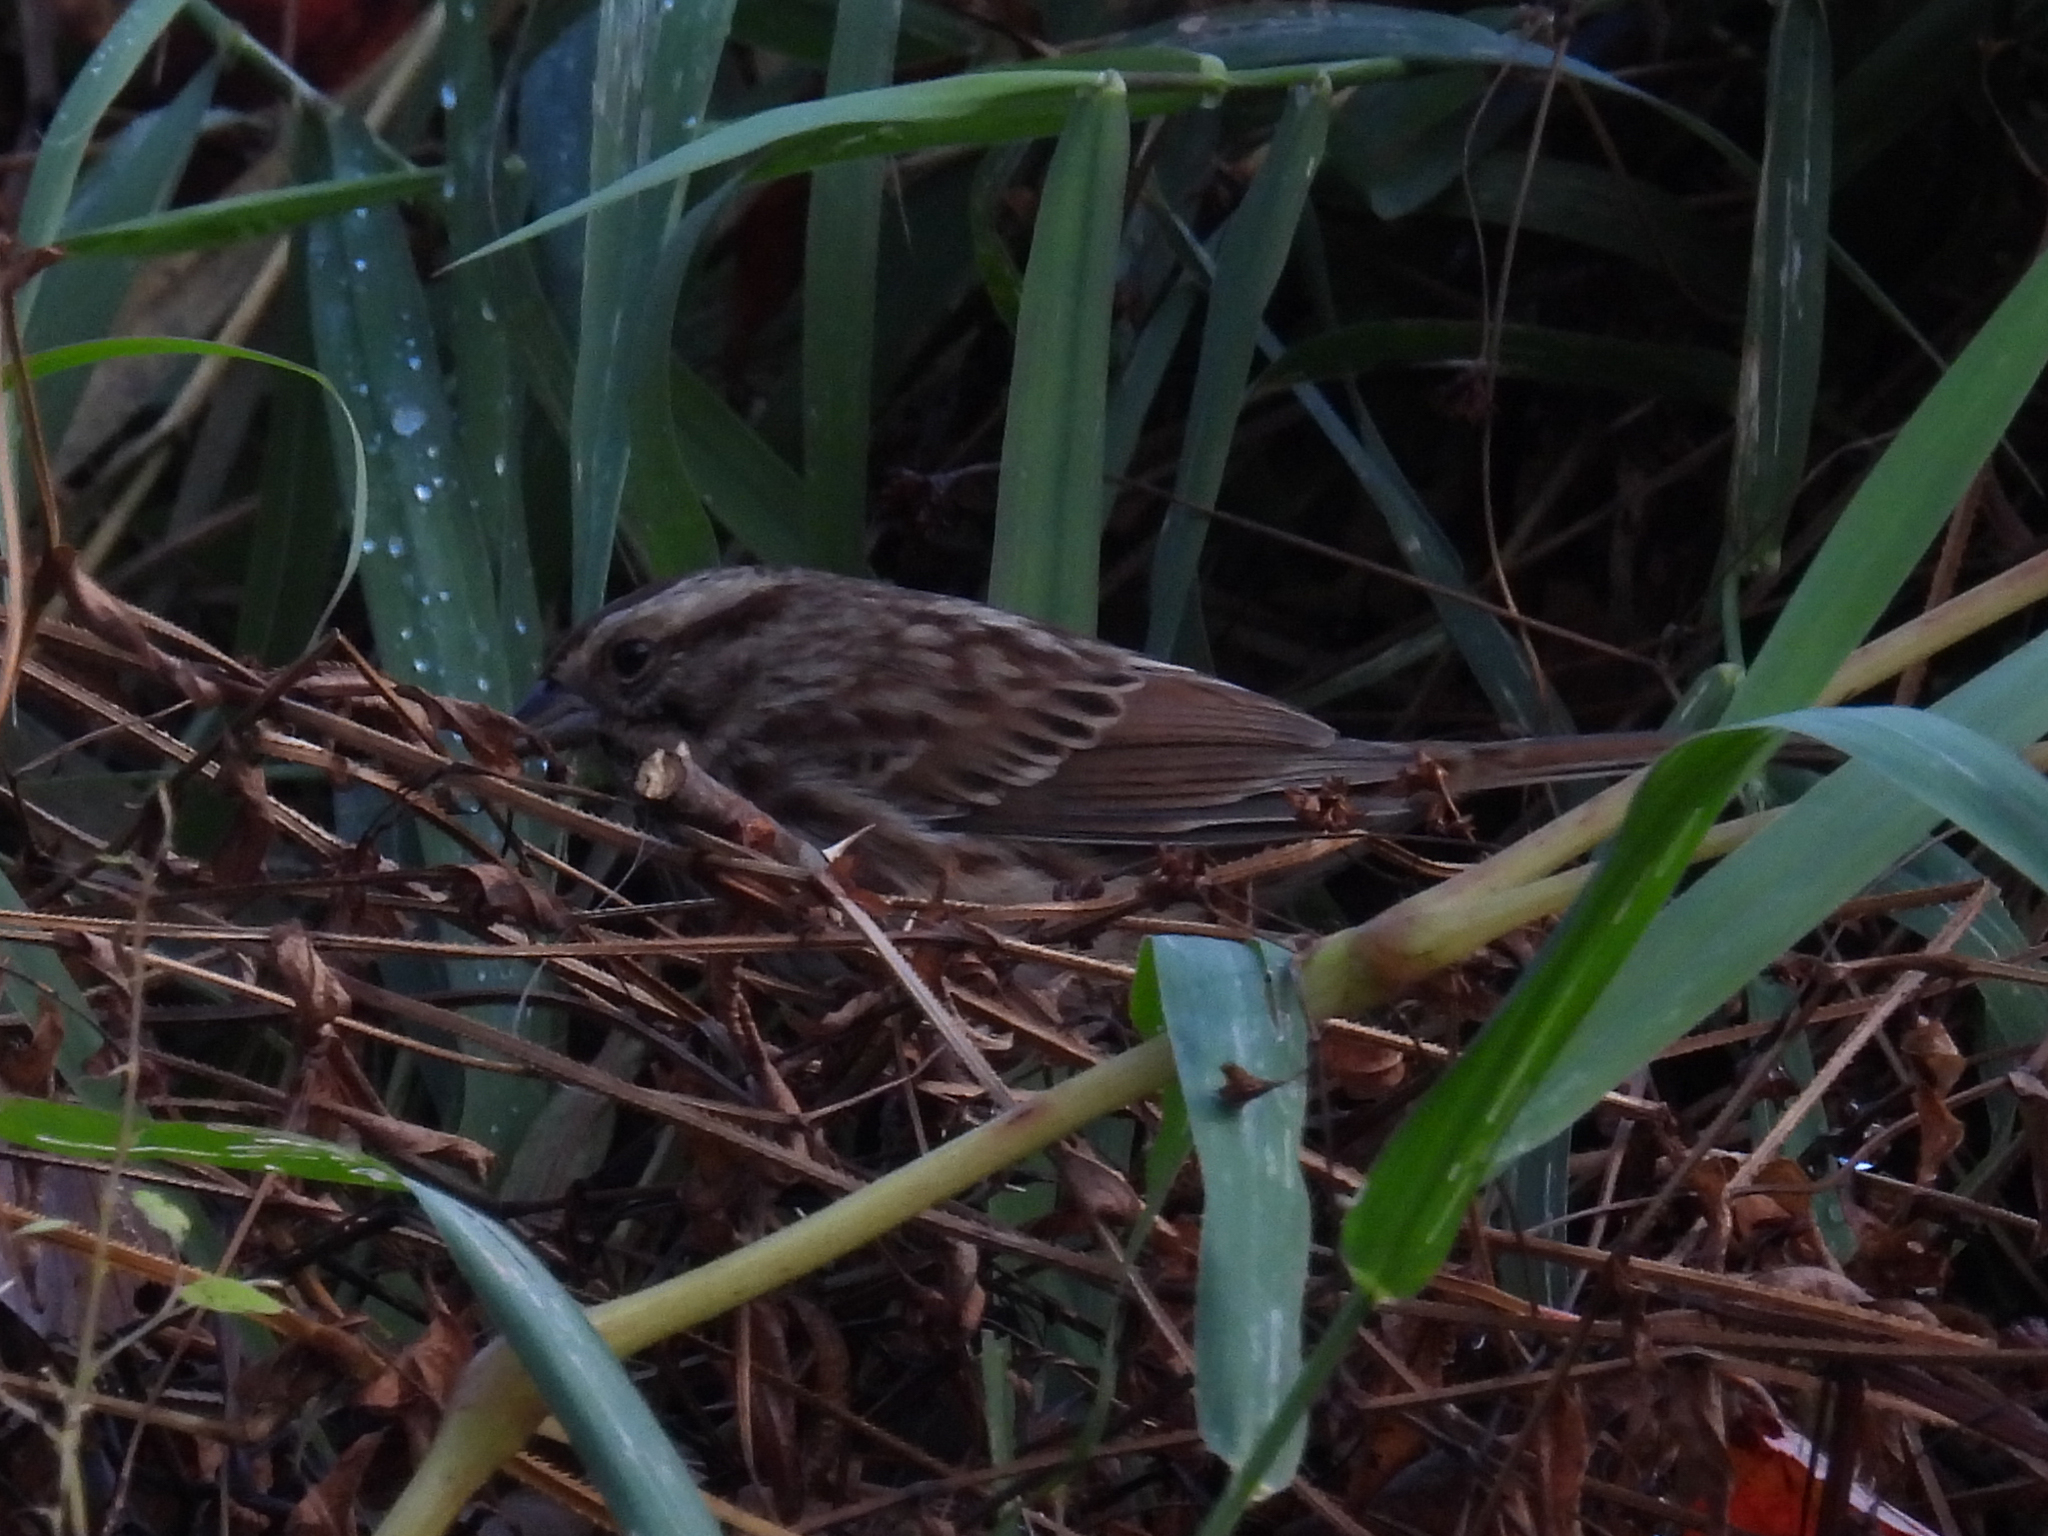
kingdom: Animalia
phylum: Chordata
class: Aves
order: Passeriformes
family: Passerellidae
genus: Melospiza
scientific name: Melospiza melodia
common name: Song sparrow
